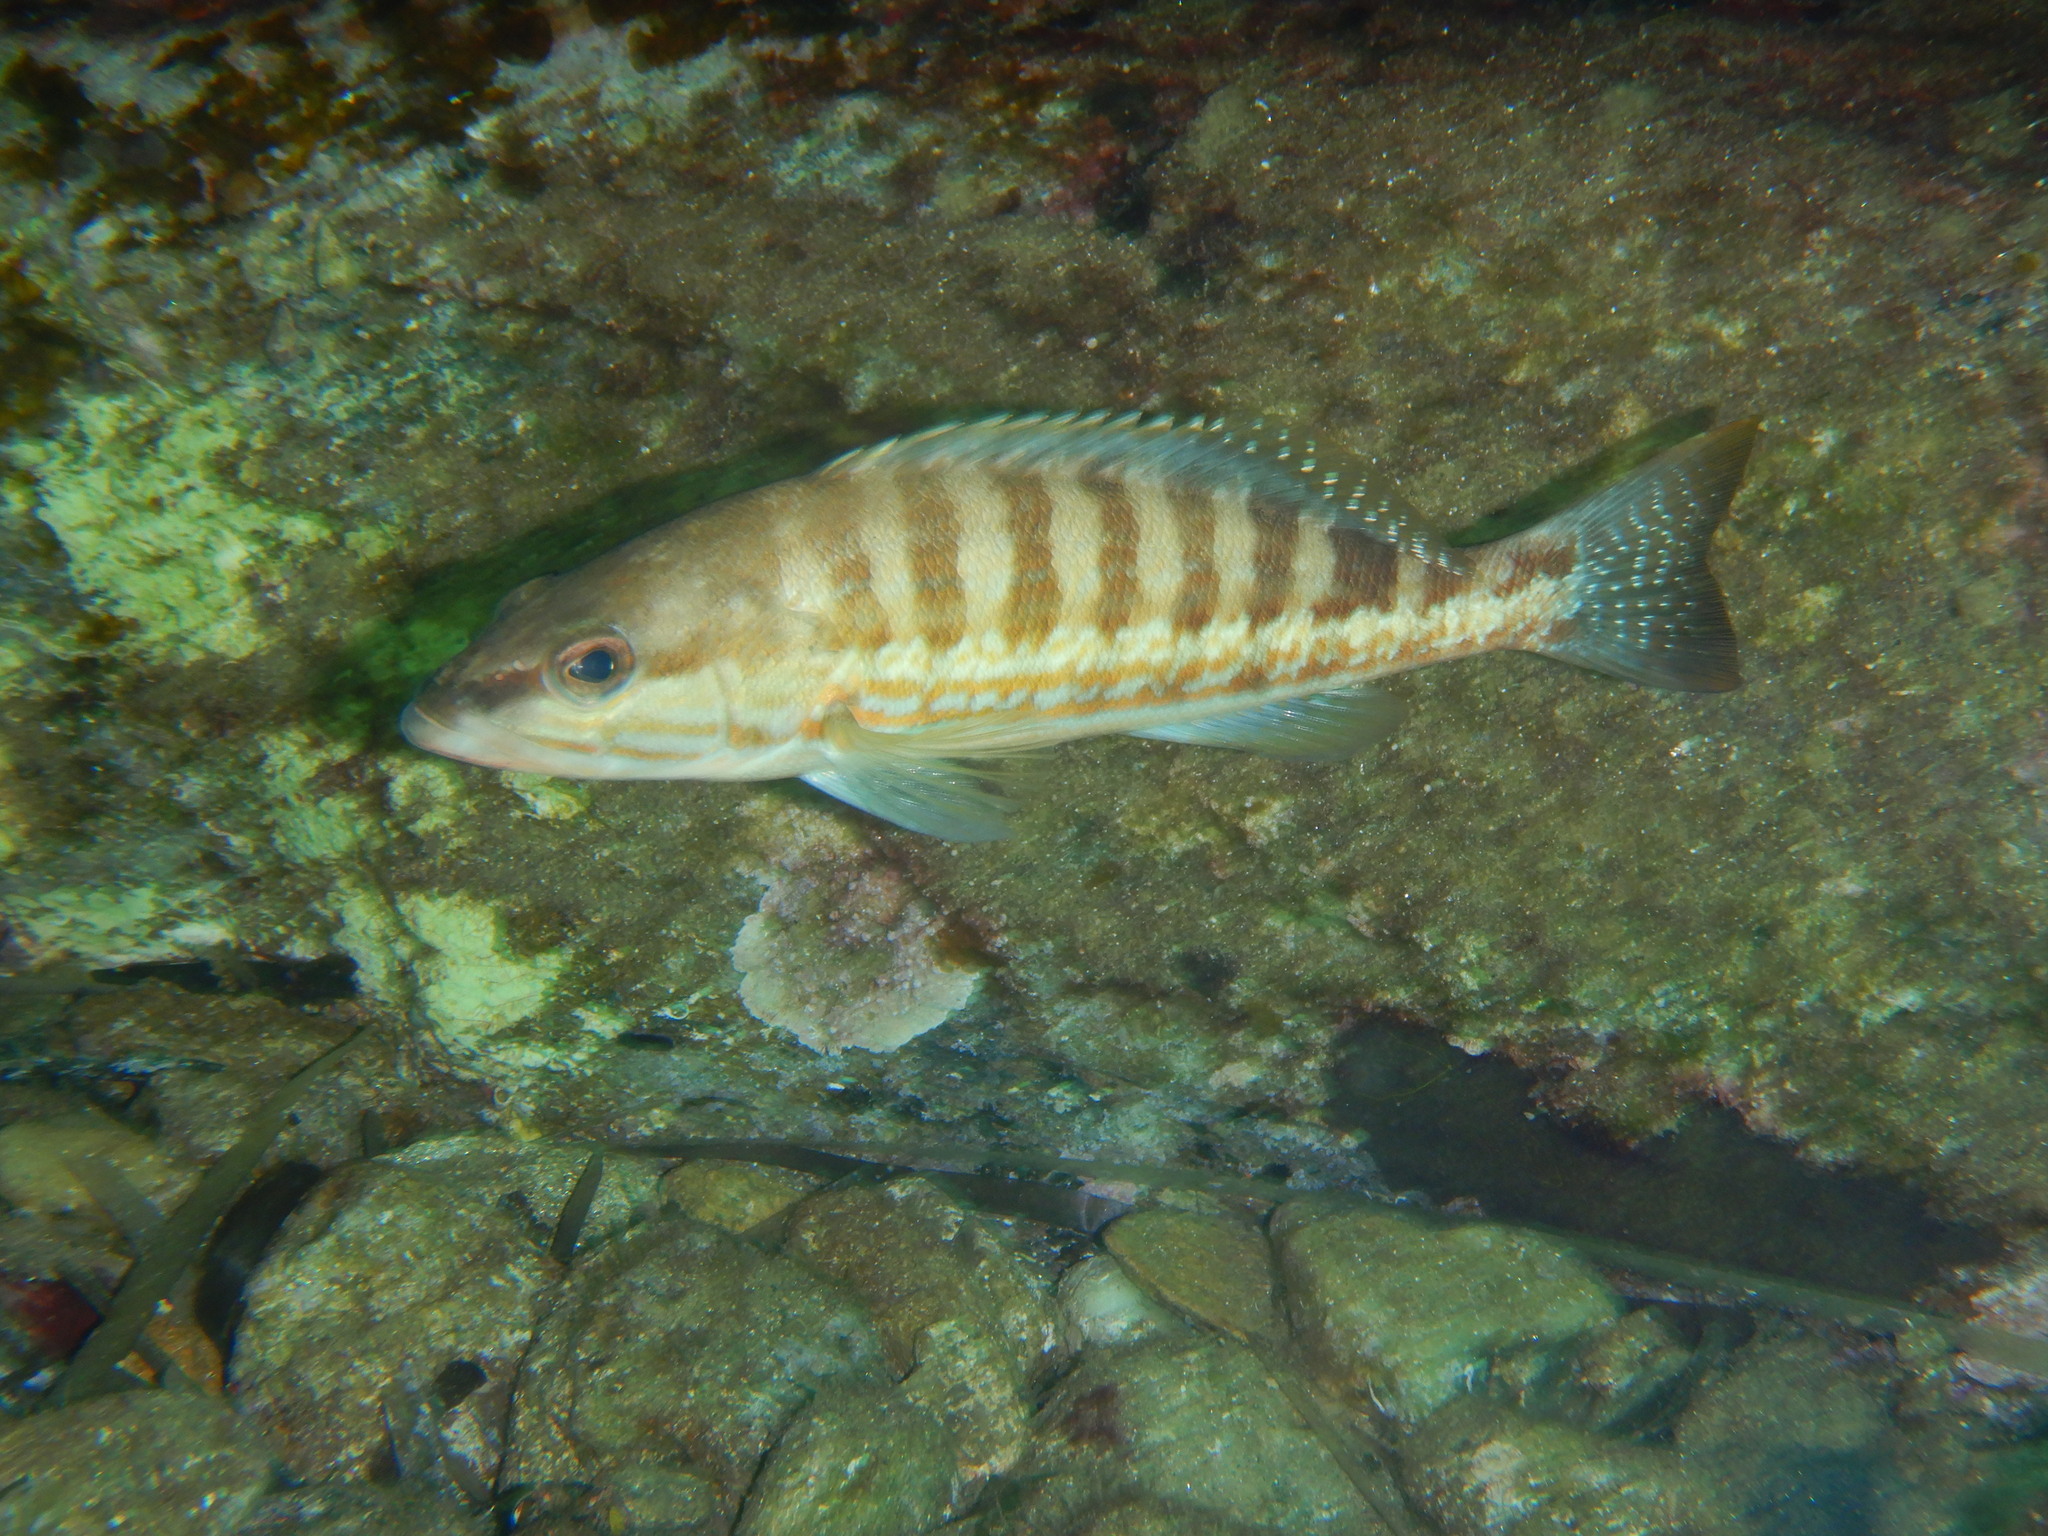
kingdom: Animalia
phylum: Chordata
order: Perciformes
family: Serranidae
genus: Serranus
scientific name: Serranus cabrilla
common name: Comber
